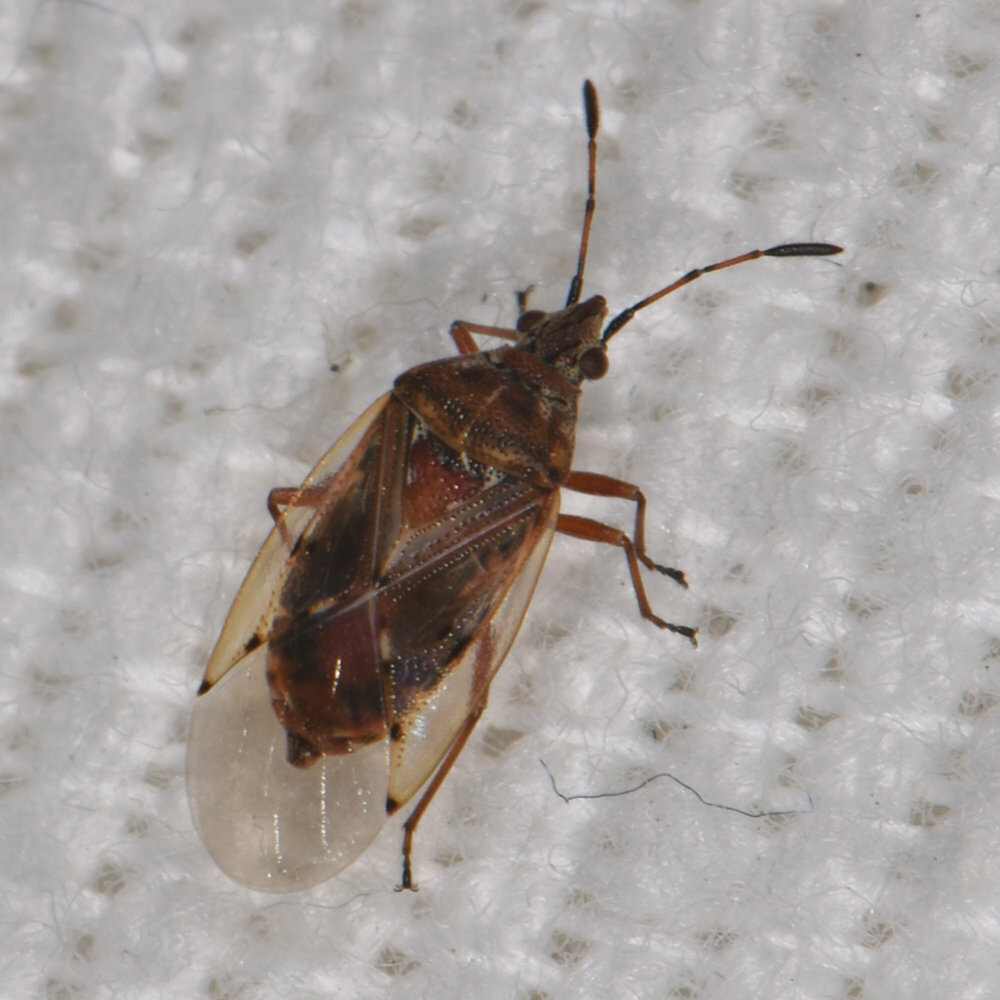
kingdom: Animalia
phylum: Arthropoda
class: Insecta
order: Hemiptera
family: Lygaeidae
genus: Kleidocerys
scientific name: Kleidocerys resedae
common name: Birch catkin bug
